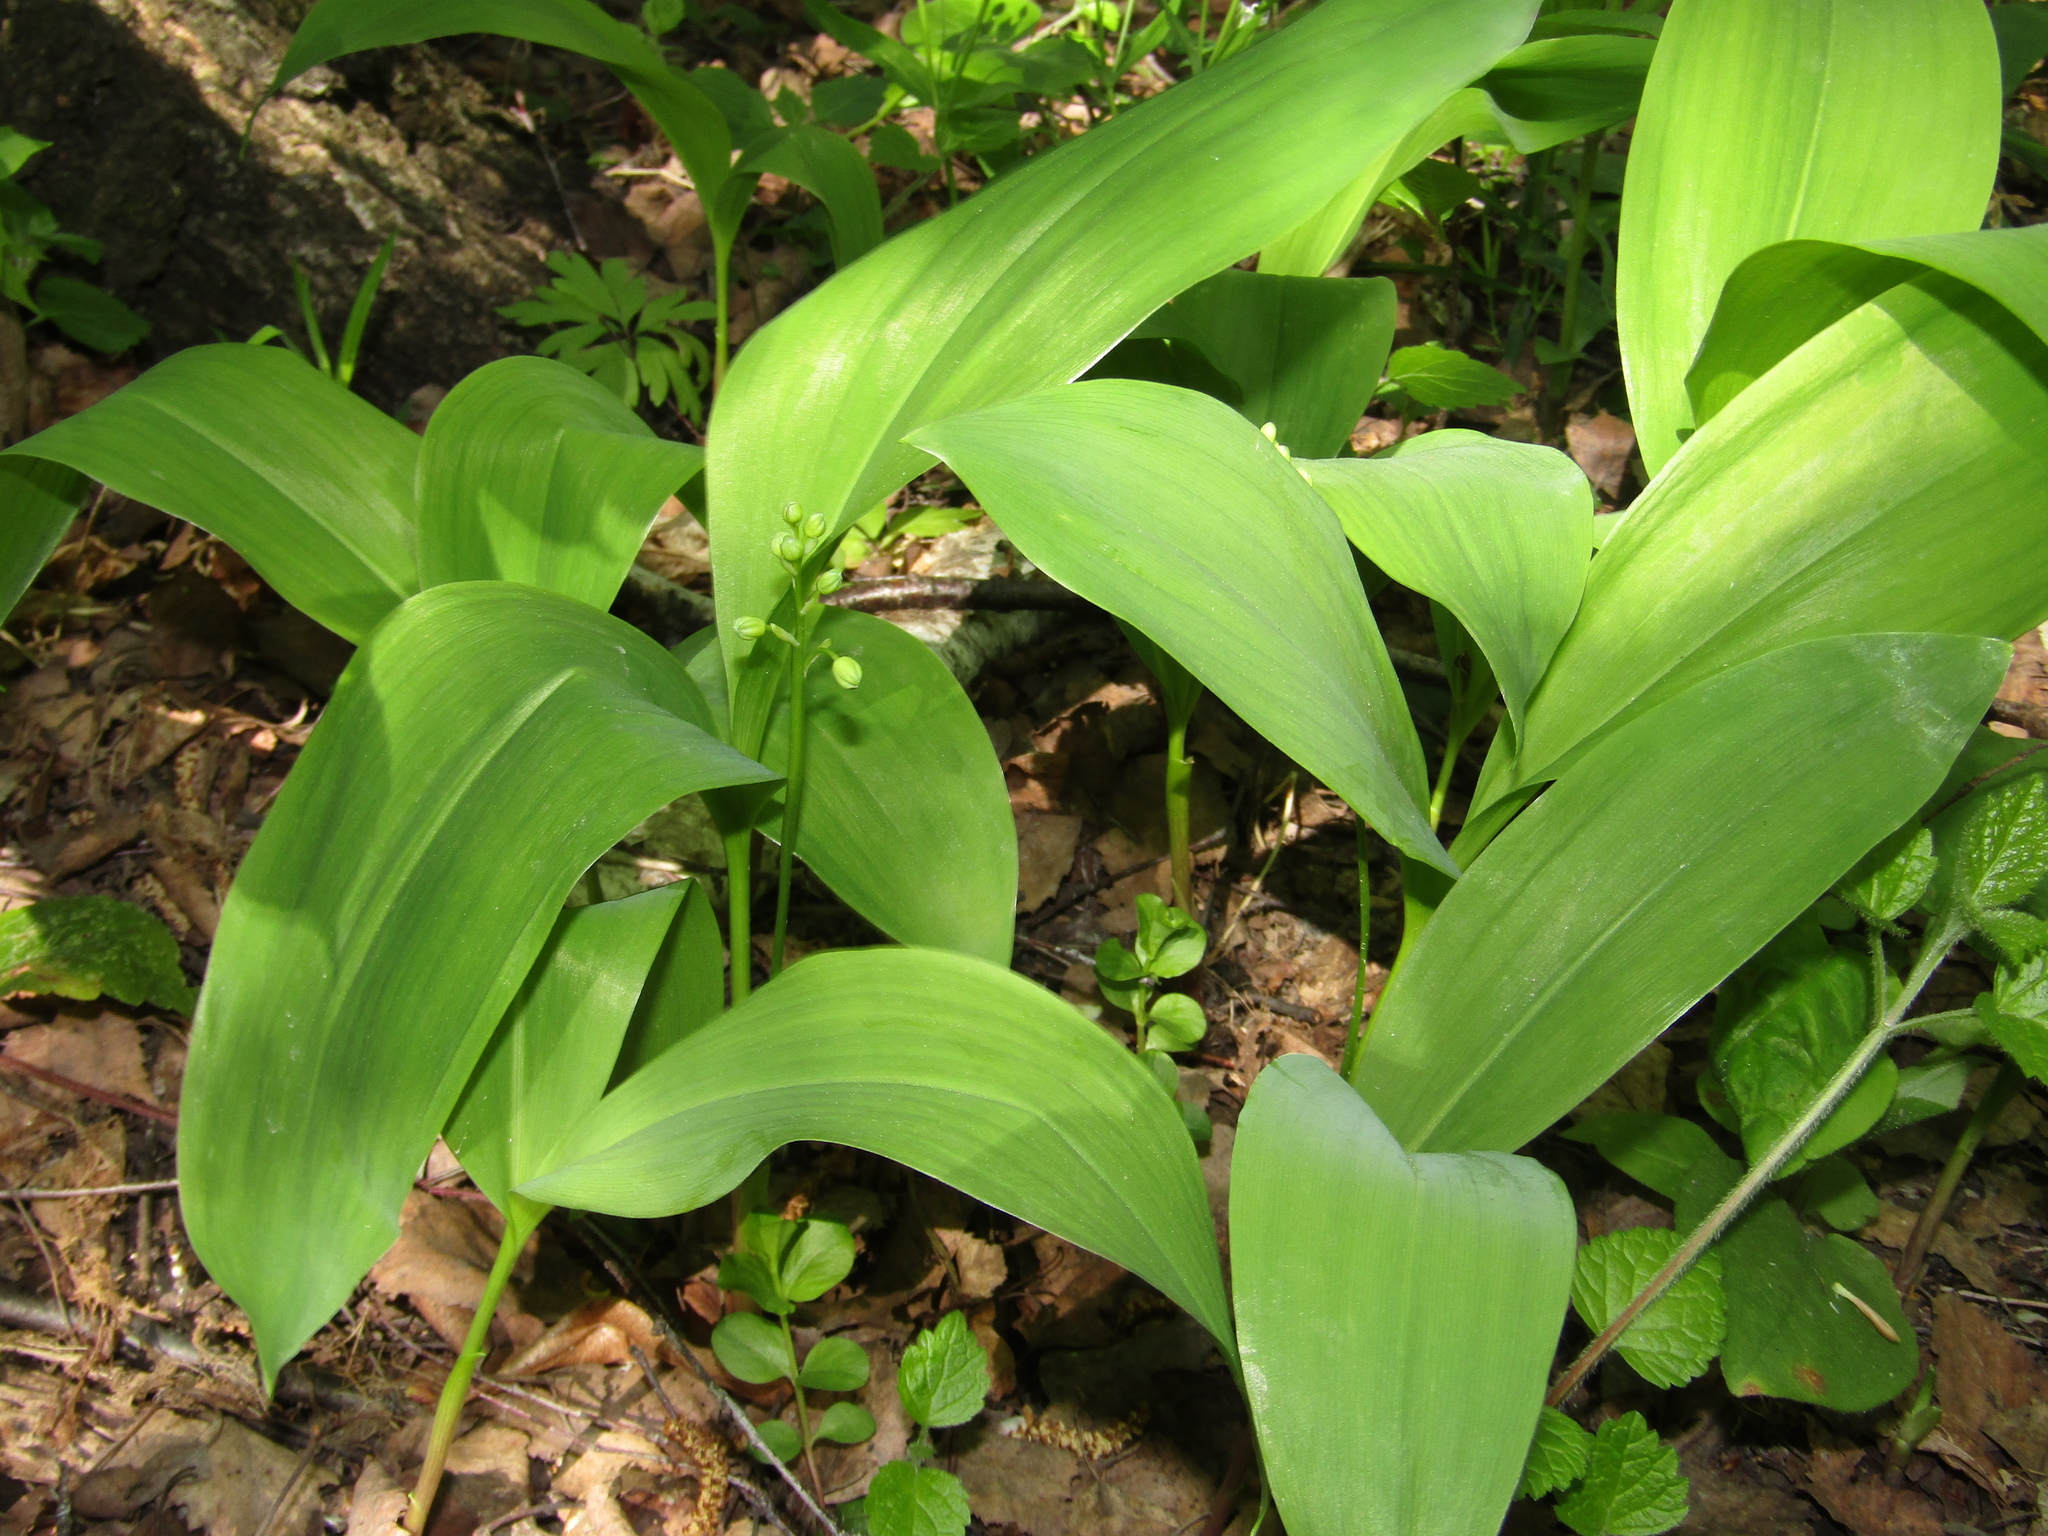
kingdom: Plantae
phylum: Tracheophyta
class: Liliopsida
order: Asparagales
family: Asparagaceae
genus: Convallaria
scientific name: Convallaria majalis
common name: Lily-of-the-valley
